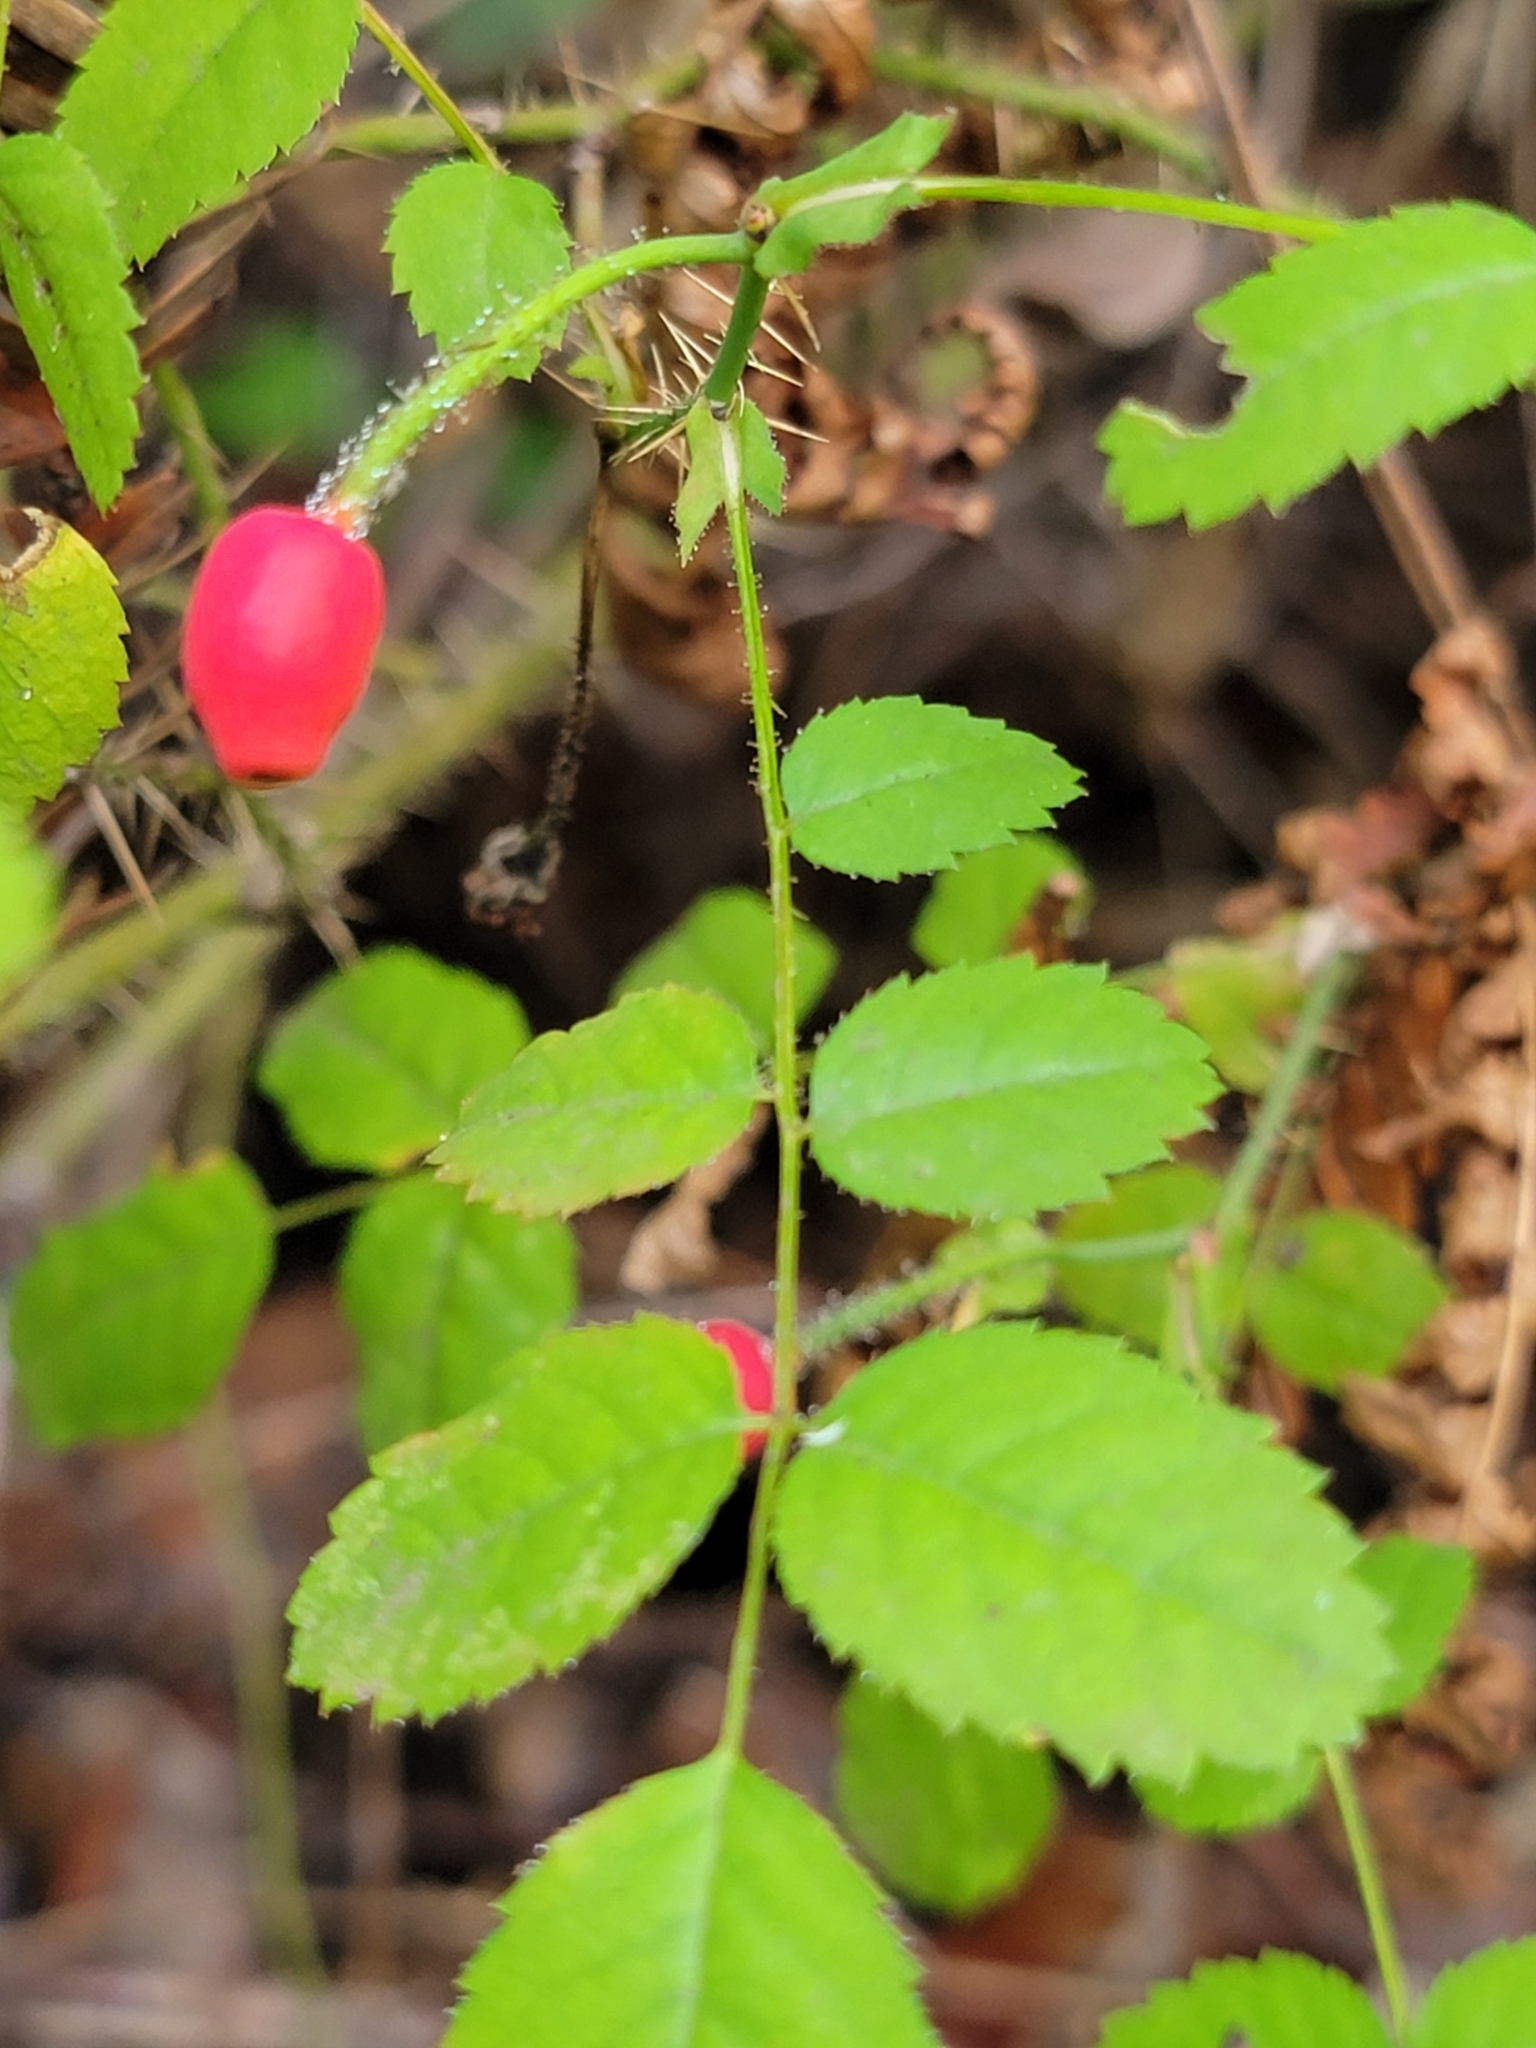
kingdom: Plantae
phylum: Tracheophyta
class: Magnoliopsida
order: Rosales
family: Rosaceae
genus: Rosa
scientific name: Rosa gymnocarpa
